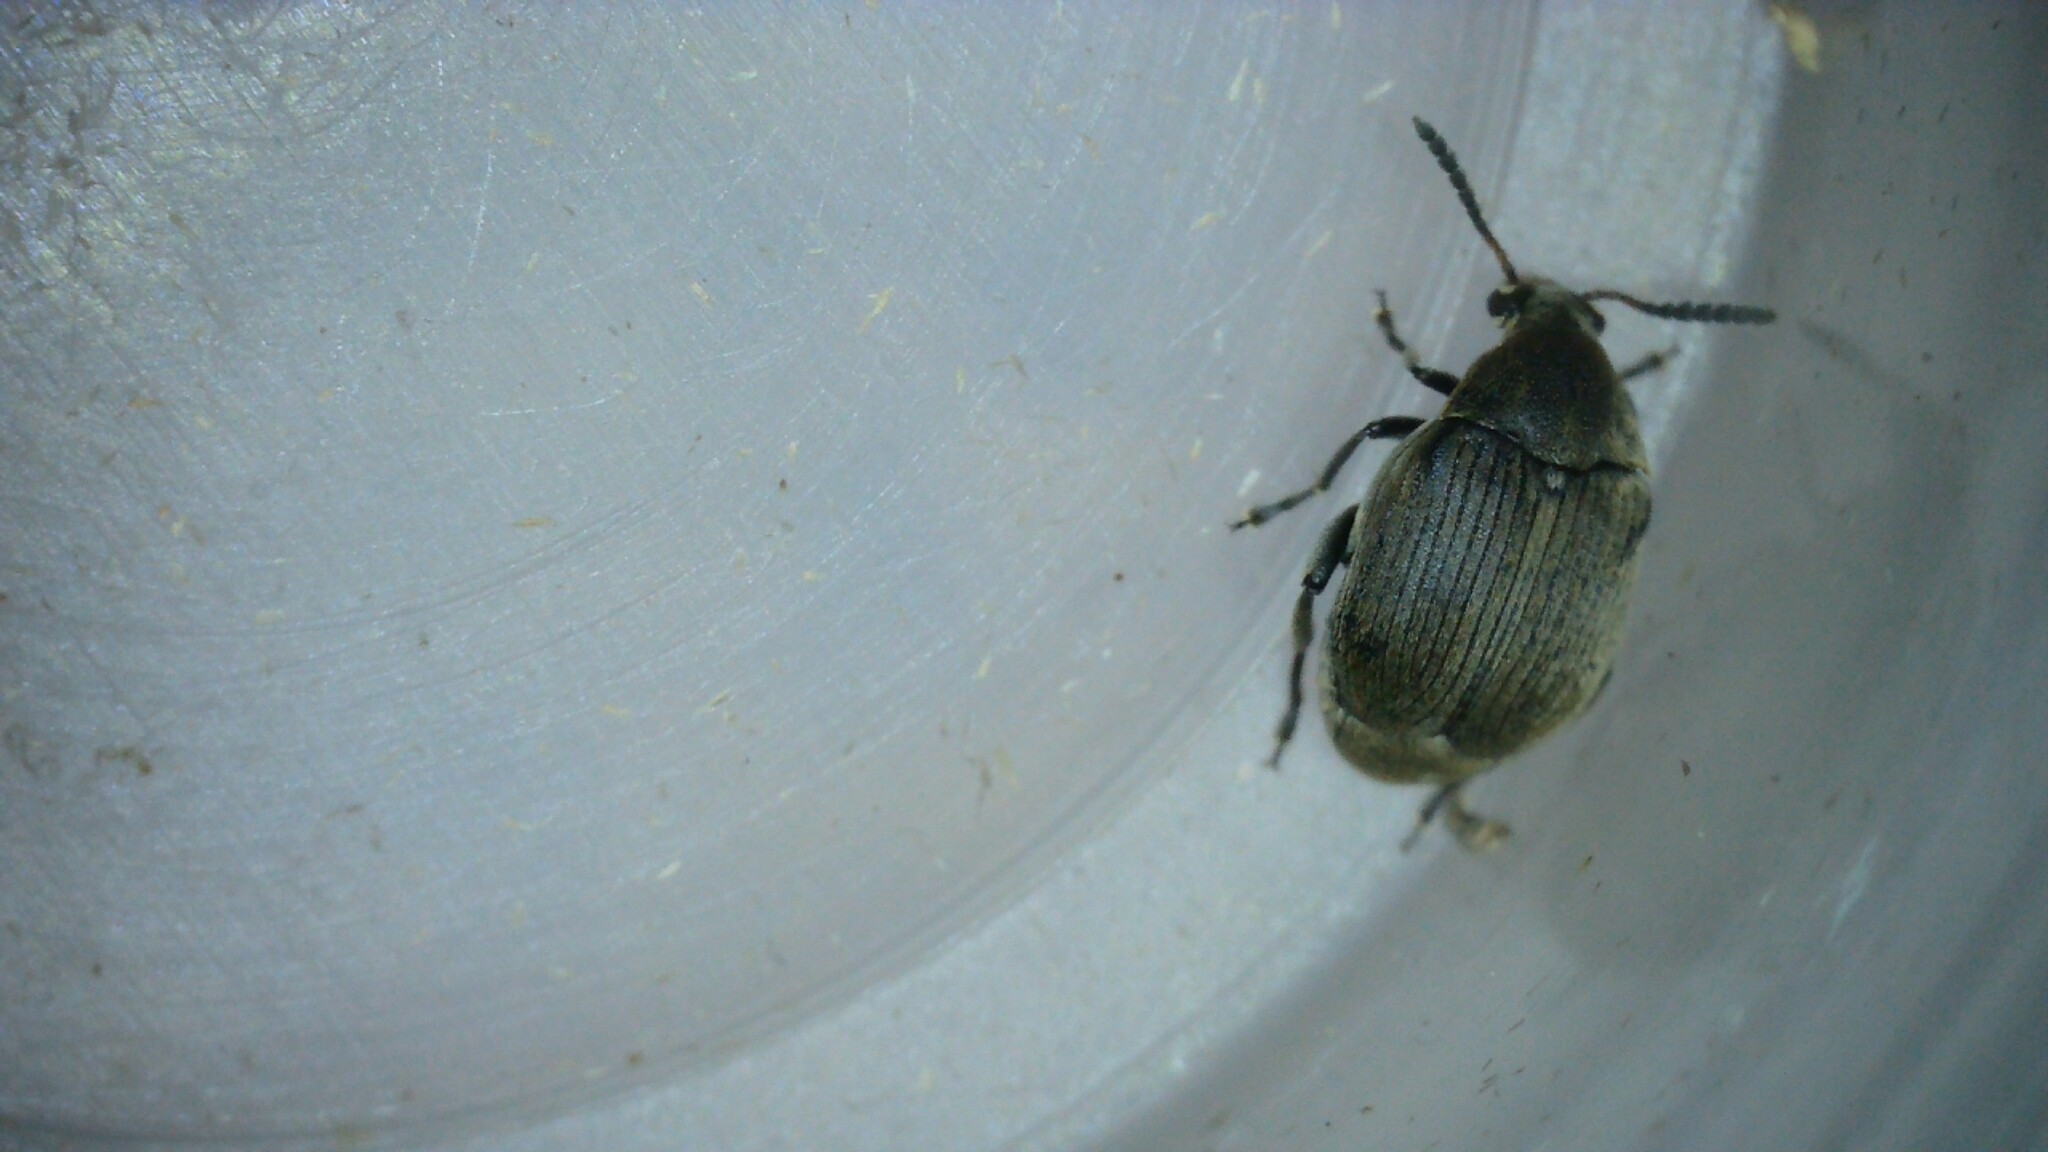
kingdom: Animalia
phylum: Arthropoda
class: Insecta
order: Coleoptera
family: Chrysomelidae
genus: Bruchidius
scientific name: Bruchidius villosus
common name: Scotch broom bruchid
